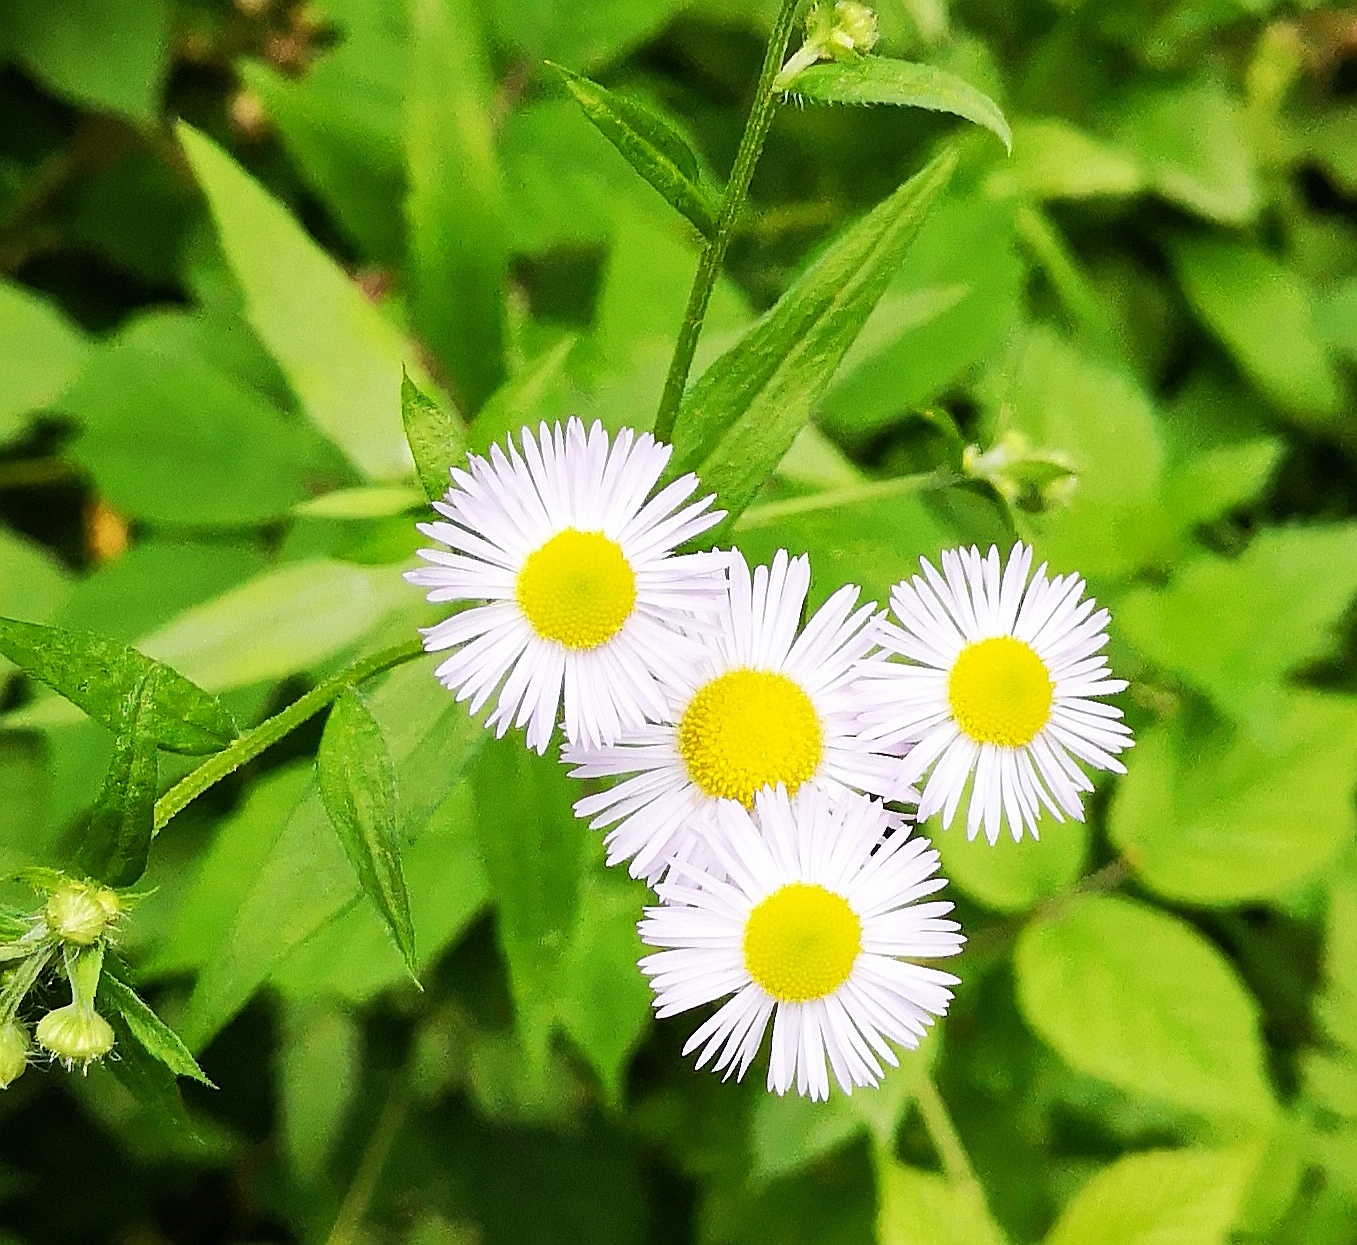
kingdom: Plantae
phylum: Tracheophyta
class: Magnoliopsida
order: Asterales
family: Asteraceae
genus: Erigeron
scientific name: Erigeron annuus
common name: Tall fleabane
